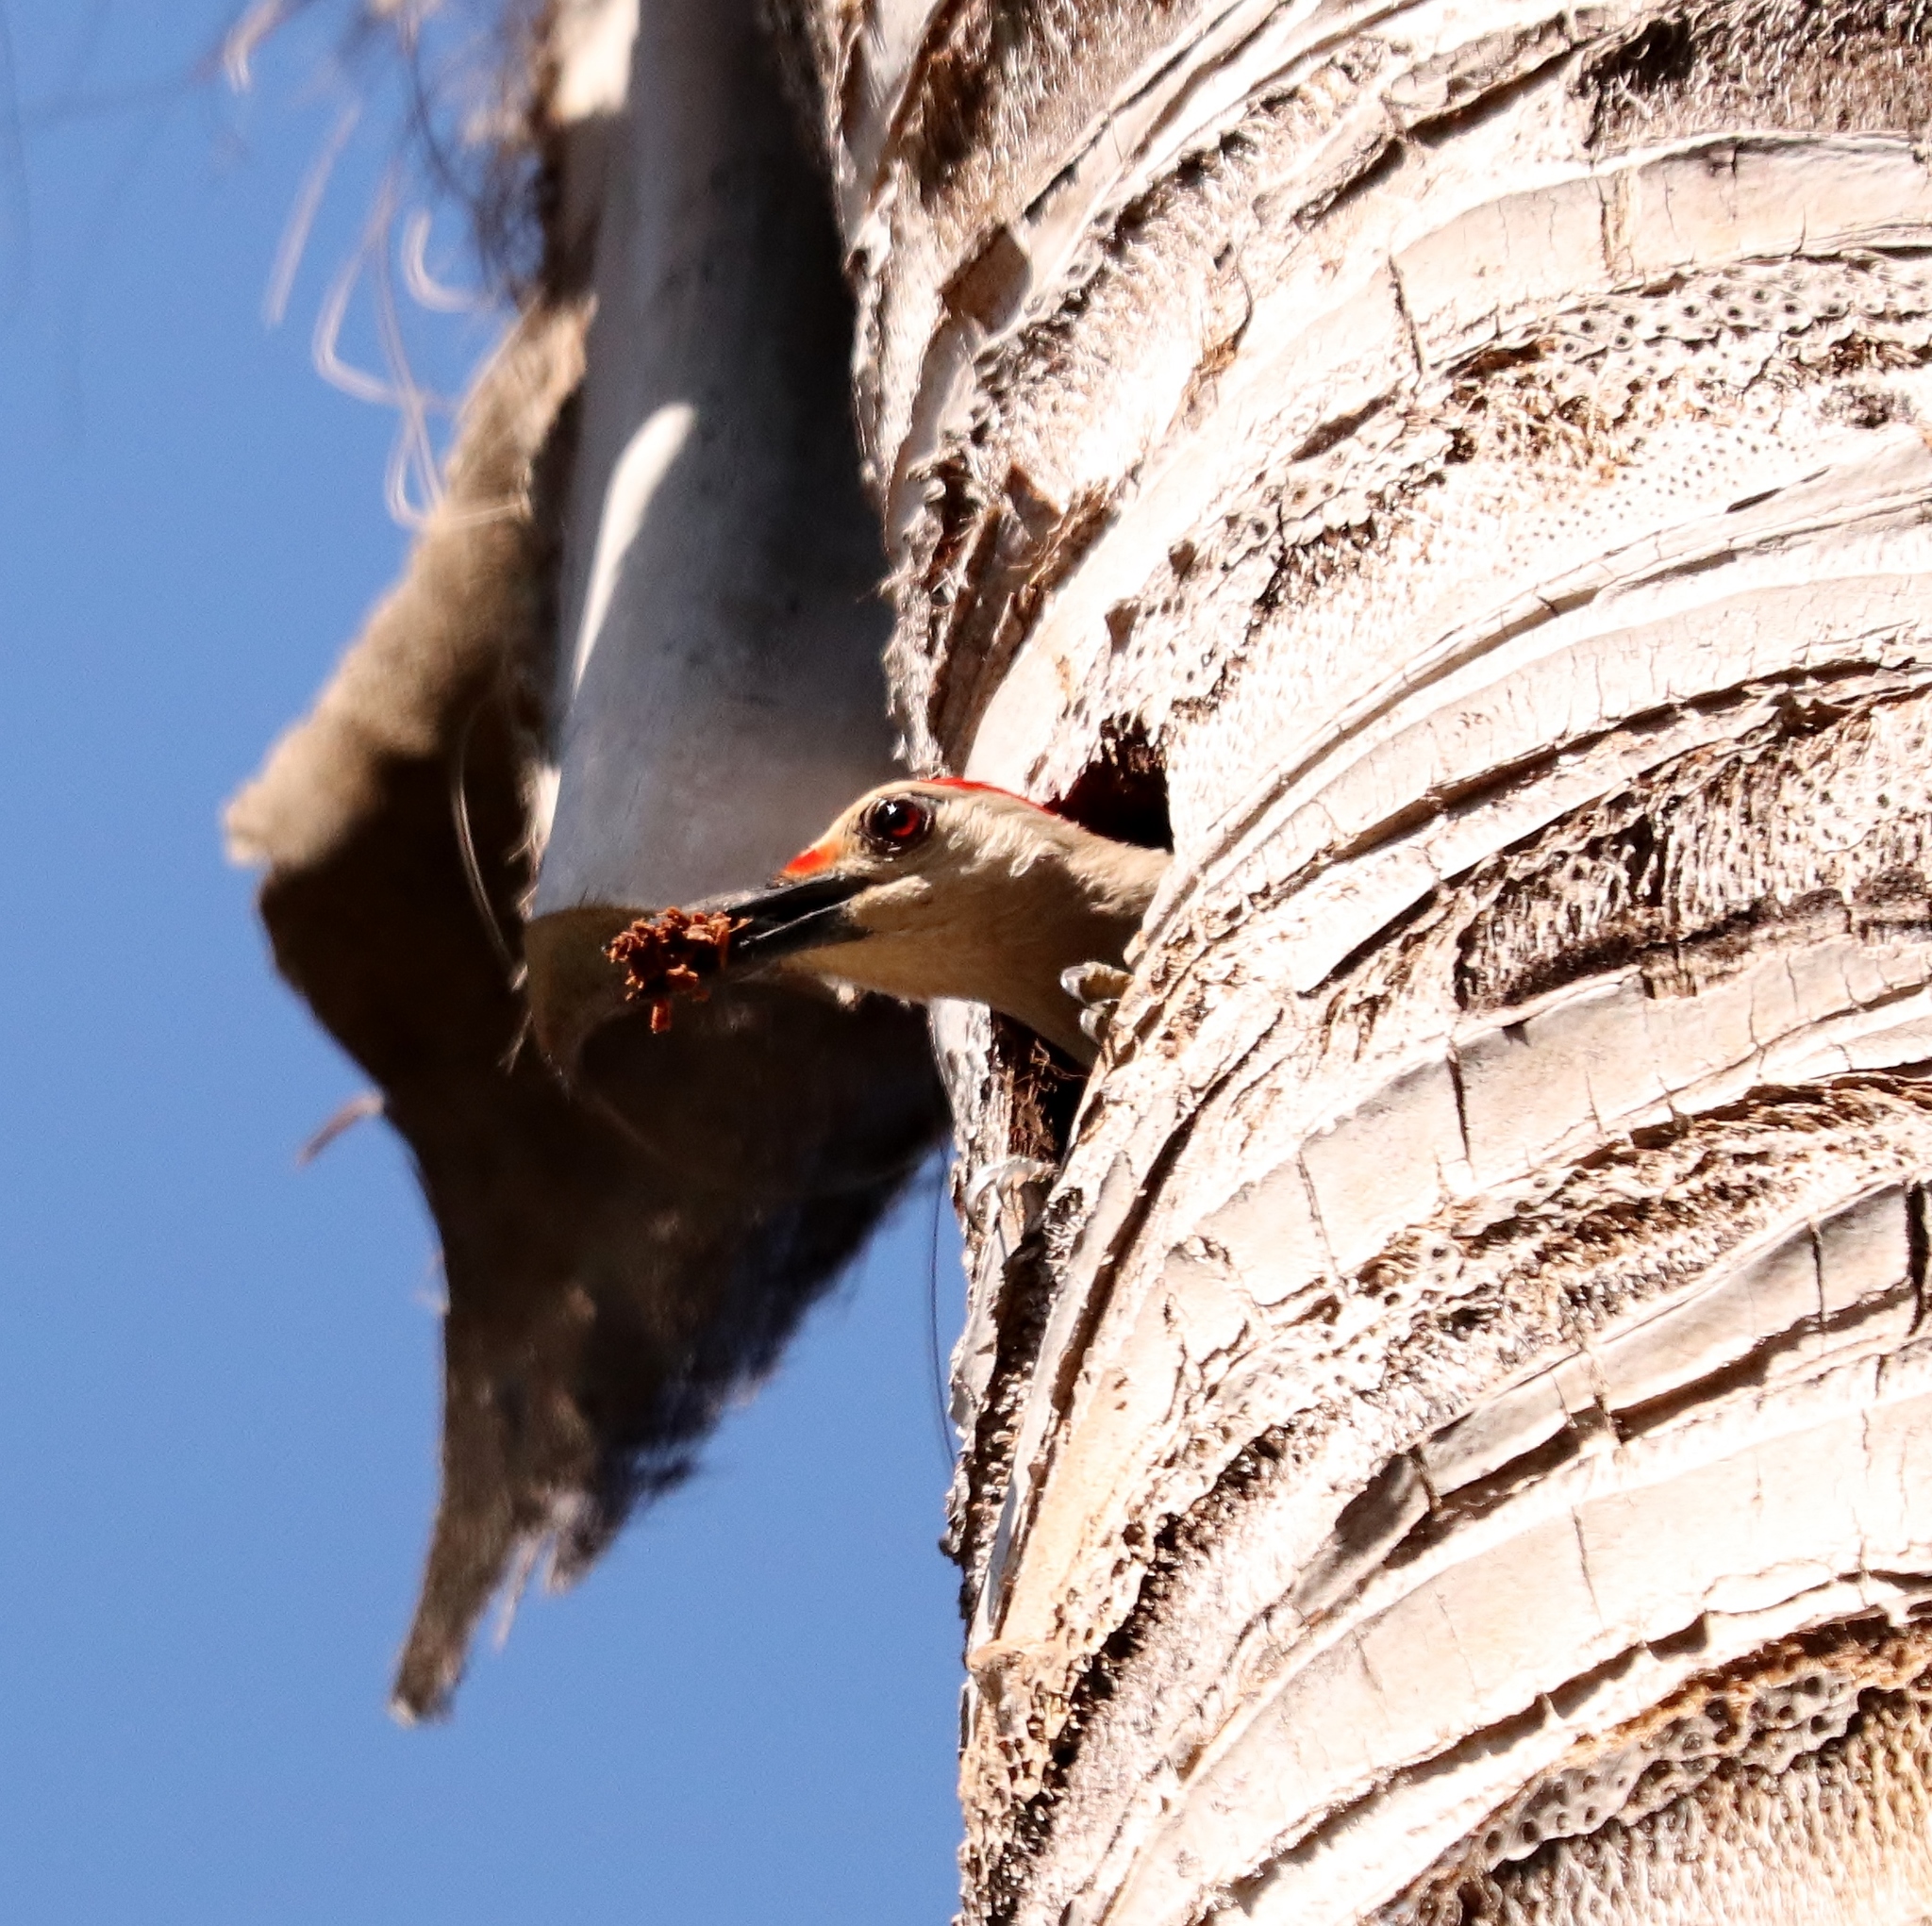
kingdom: Animalia
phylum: Chordata
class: Aves
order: Piciformes
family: Picidae
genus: Melanerpes
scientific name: Melanerpes aurifrons
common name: Golden-fronted woodpecker
